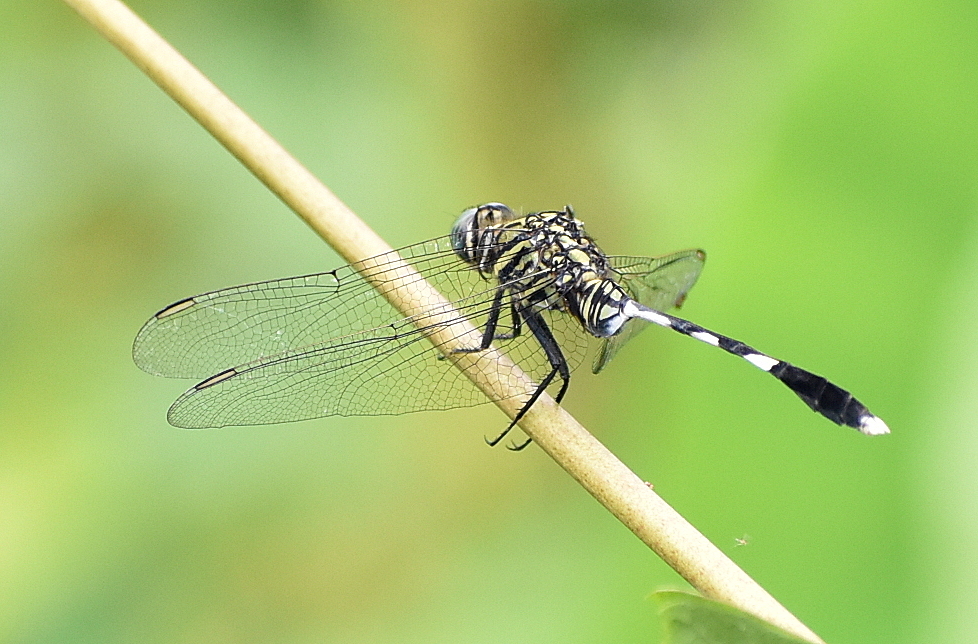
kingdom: Animalia
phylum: Arthropoda
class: Insecta
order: Odonata
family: Libellulidae
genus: Orthetrum
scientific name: Orthetrum sabina
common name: Slender skimmer
